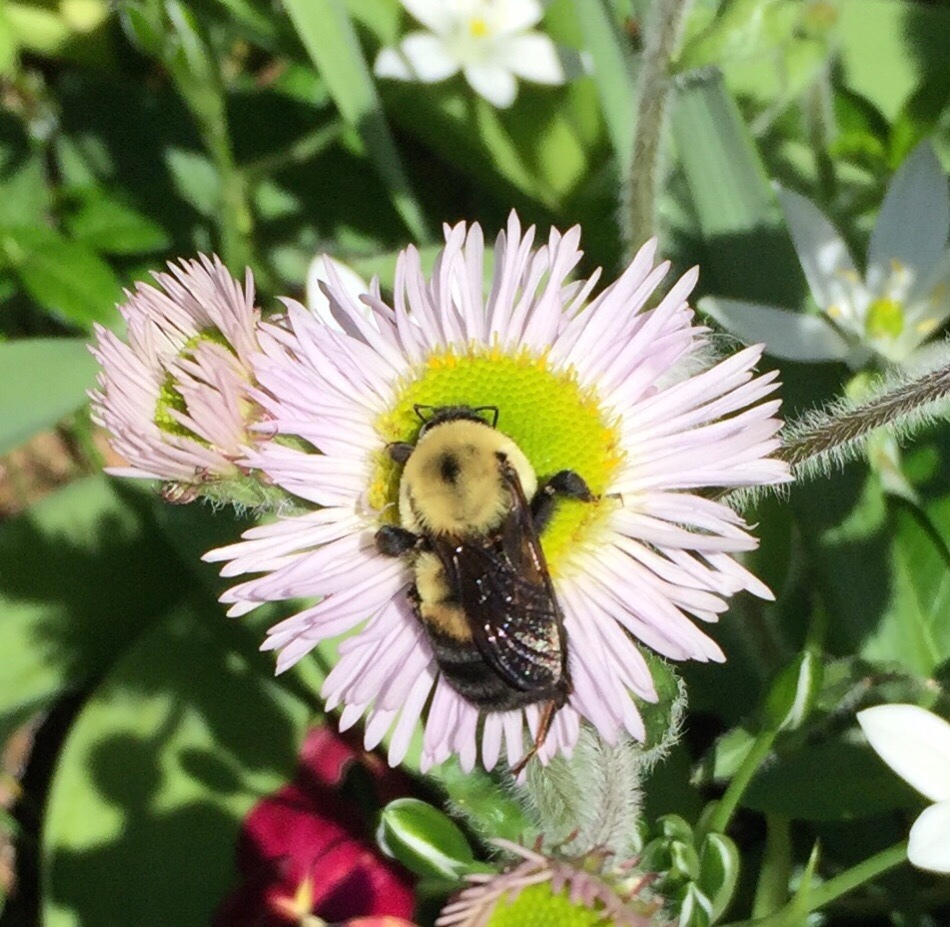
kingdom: Animalia
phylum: Arthropoda
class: Insecta
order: Hymenoptera
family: Apidae
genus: Bombus
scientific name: Bombus griseocollis
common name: Brown-belted bumble bee
